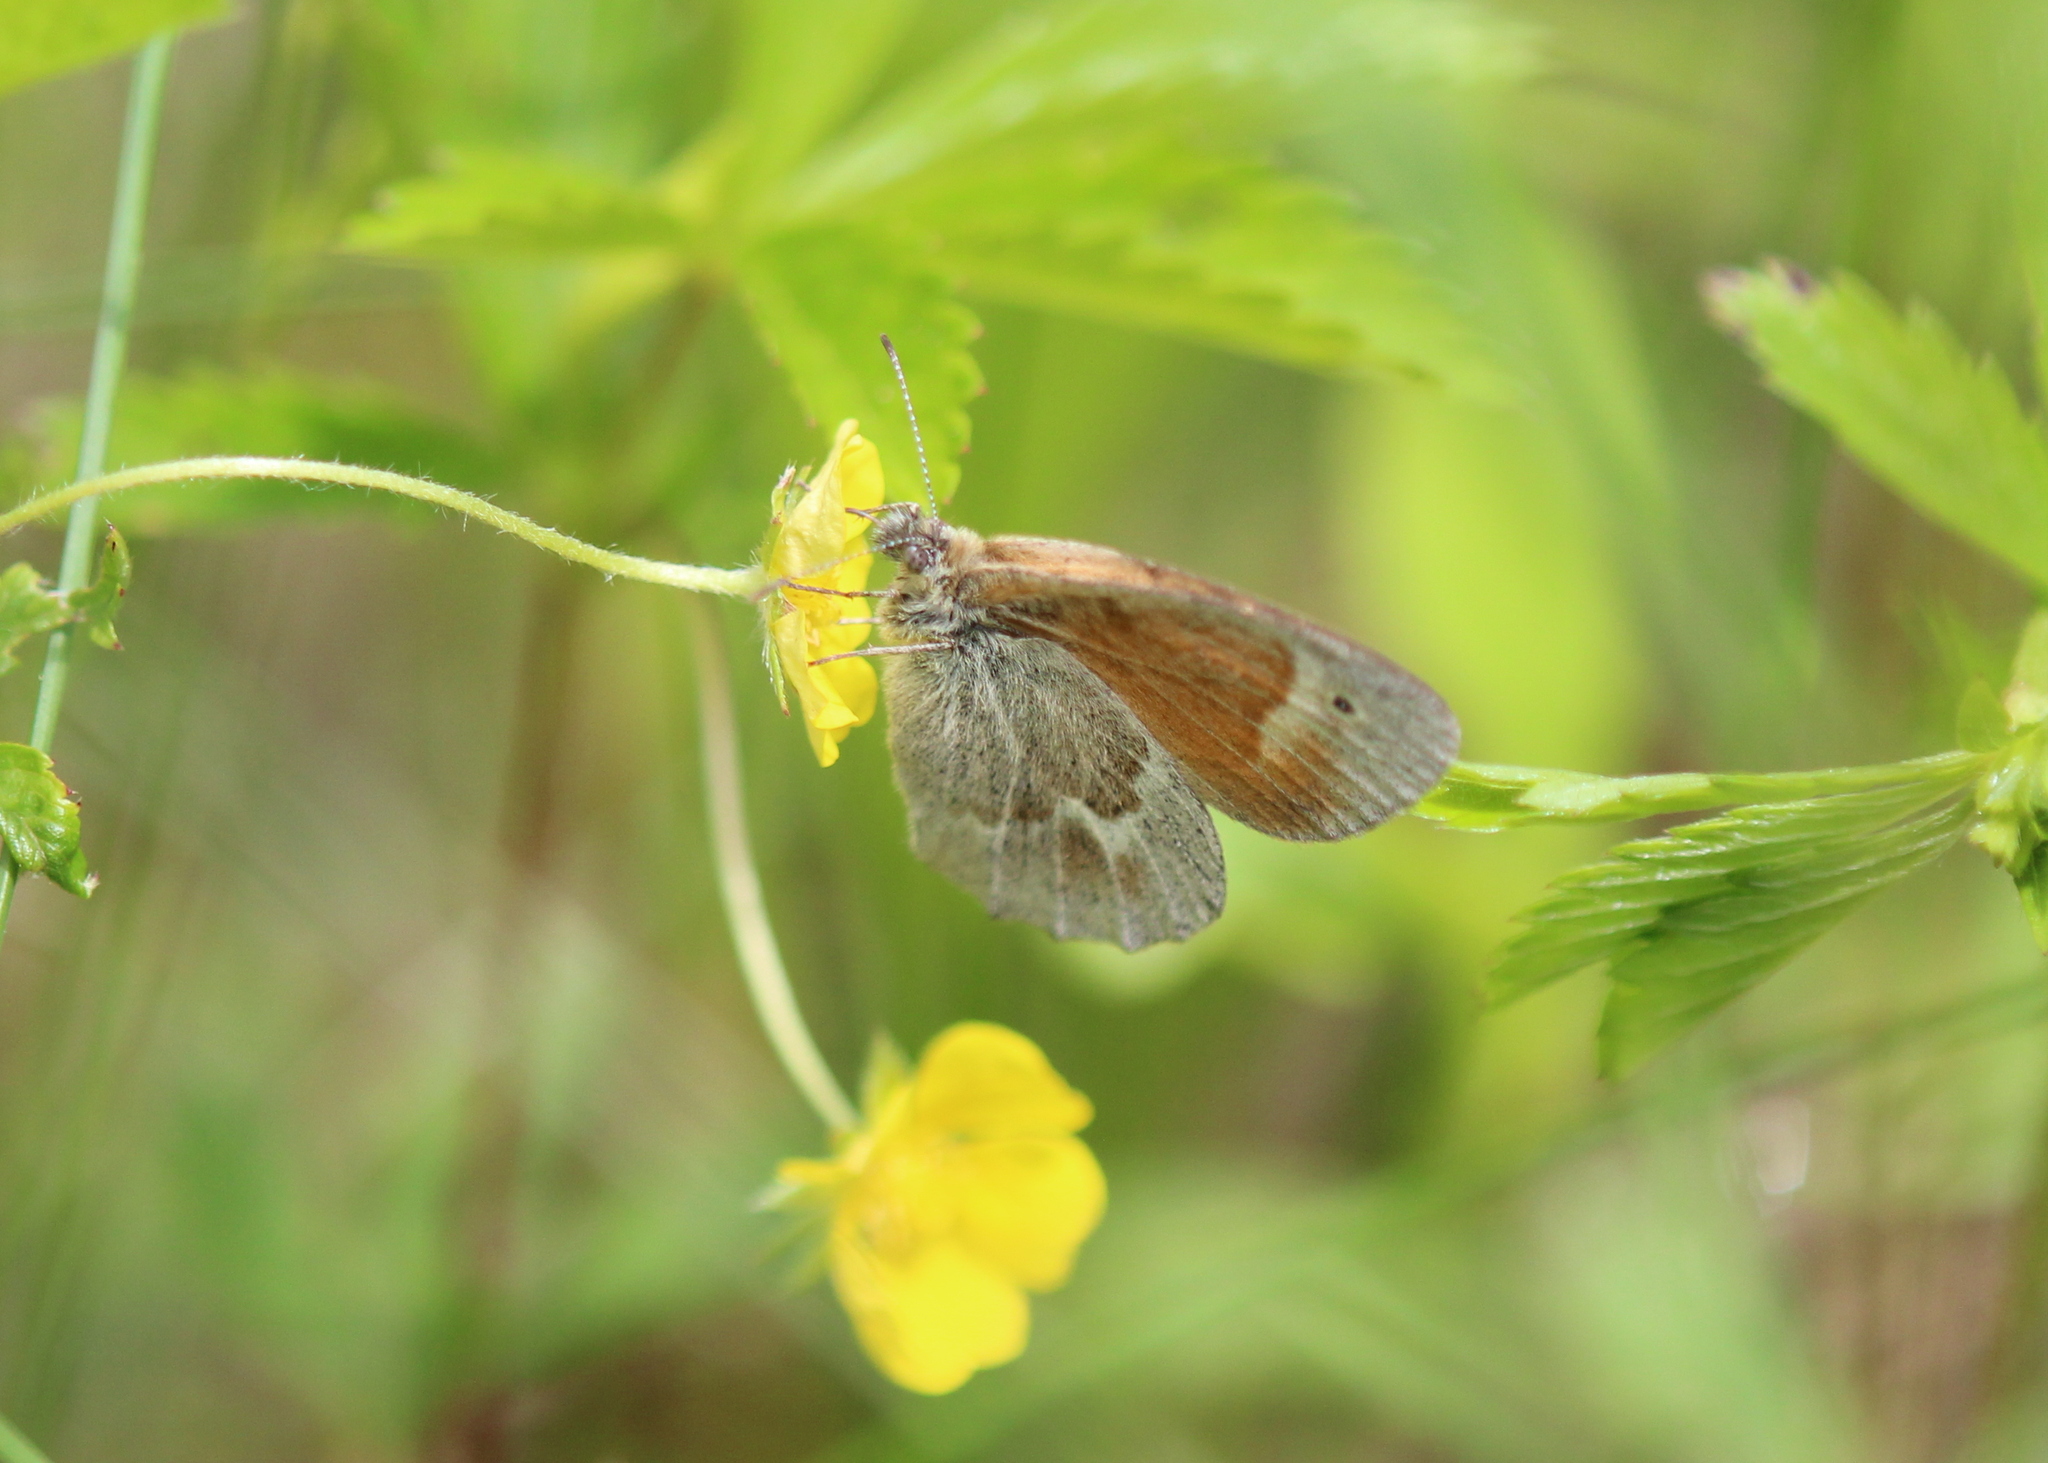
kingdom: Animalia
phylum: Arthropoda
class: Insecta
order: Lepidoptera
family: Nymphalidae
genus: Coenonympha
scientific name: Coenonympha california
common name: Common ringlet
